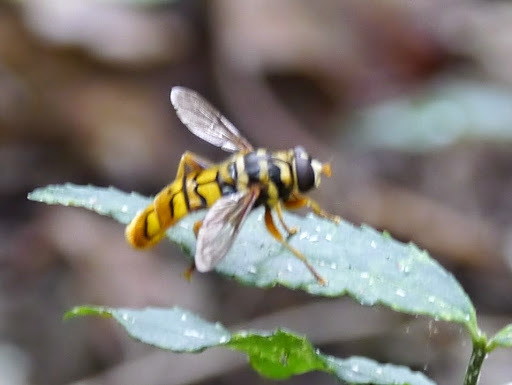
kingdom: Animalia
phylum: Arthropoda
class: Insecta
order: Diptera
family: Syrphidae
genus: Milesia
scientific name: Milesia virginiensis
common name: Virginia giant
